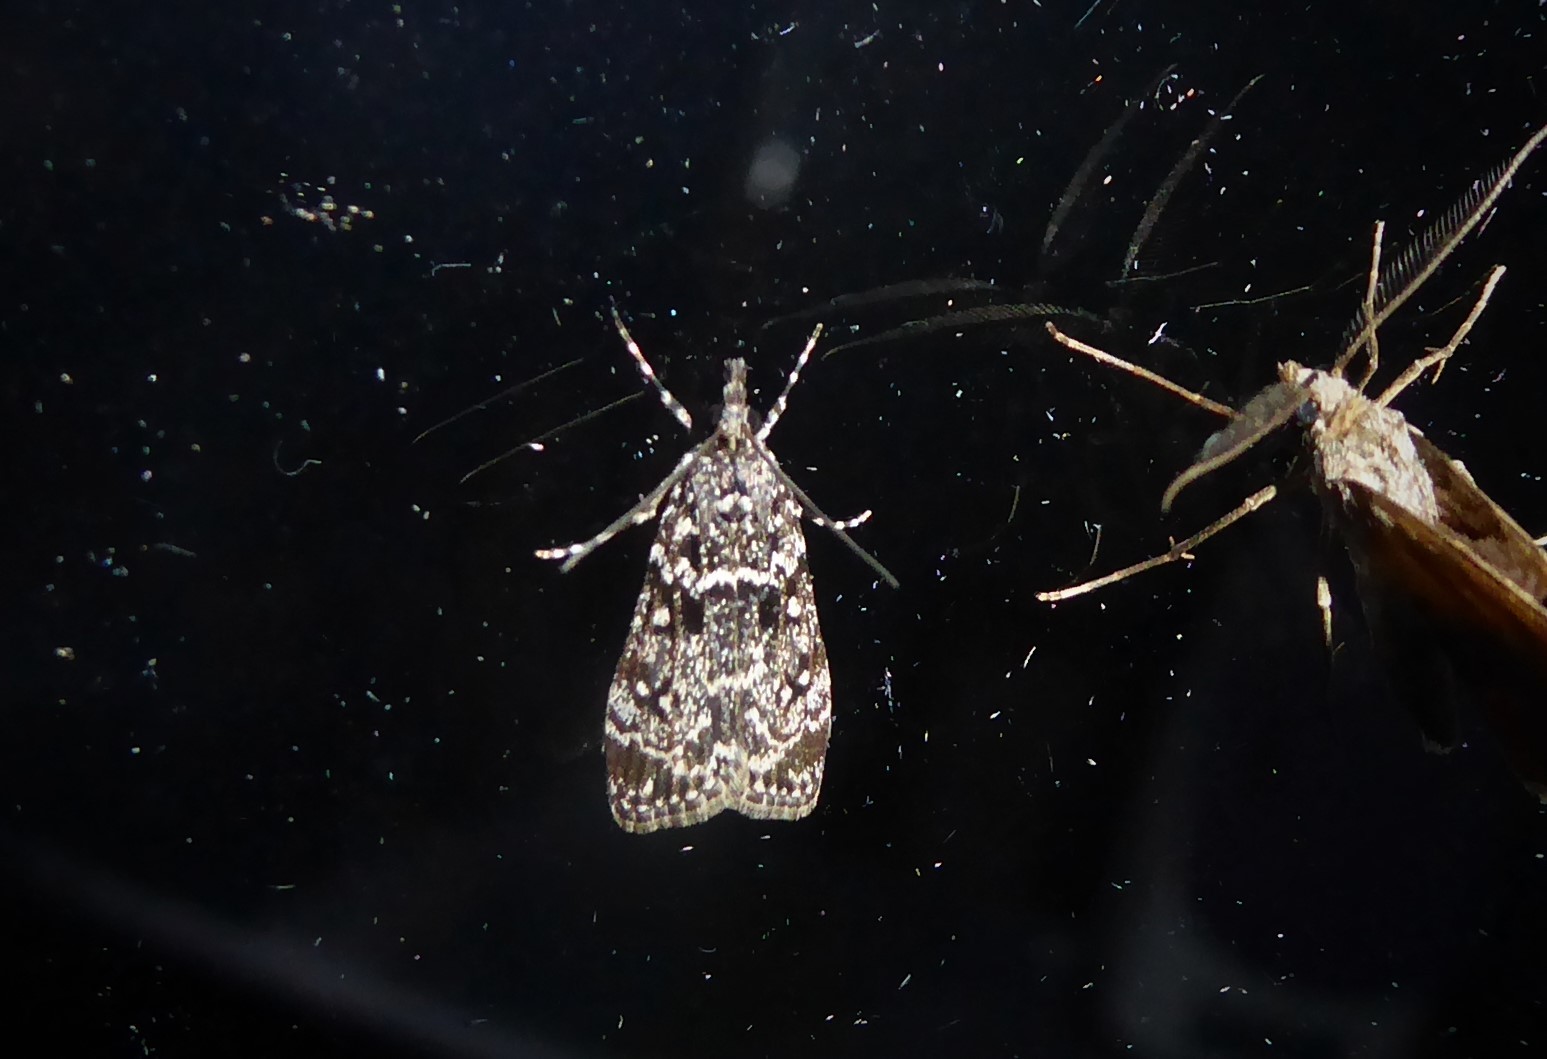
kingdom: Animalia
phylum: Arthropoda
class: Insecta
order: Lepidoptera
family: Crambidae
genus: Eudonia
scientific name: Eudonia philerga
